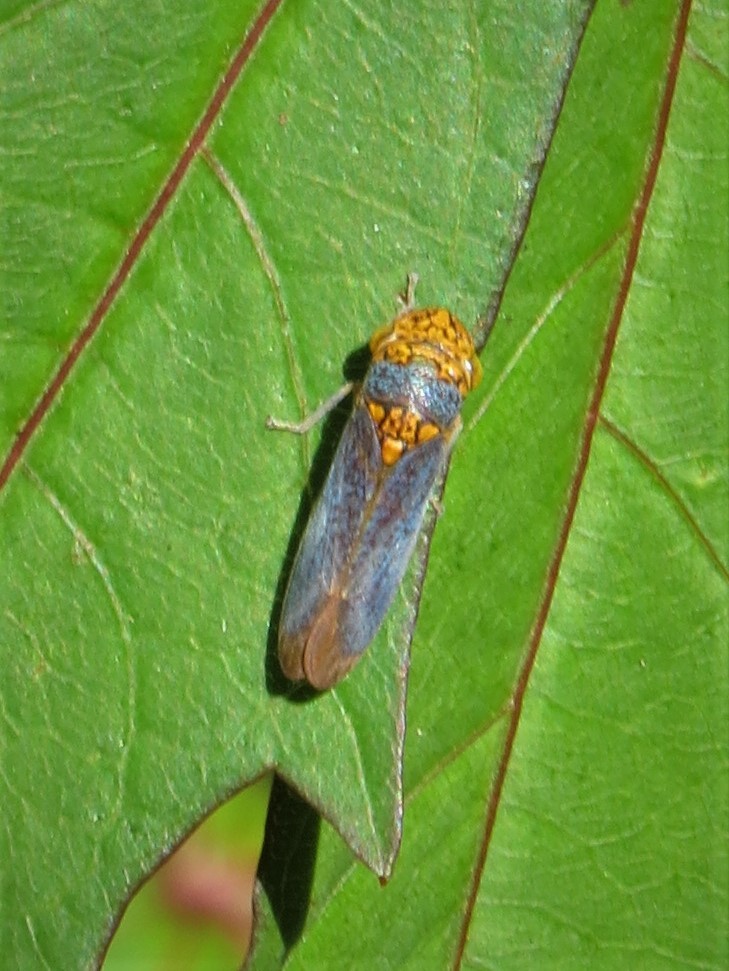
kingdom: Animalia
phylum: Arthropoda
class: Insecta
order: Hemiptera
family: Cicadellidae
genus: Oncometopia
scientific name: Oncometopia orbona
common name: Broad-headed sharpshooter
